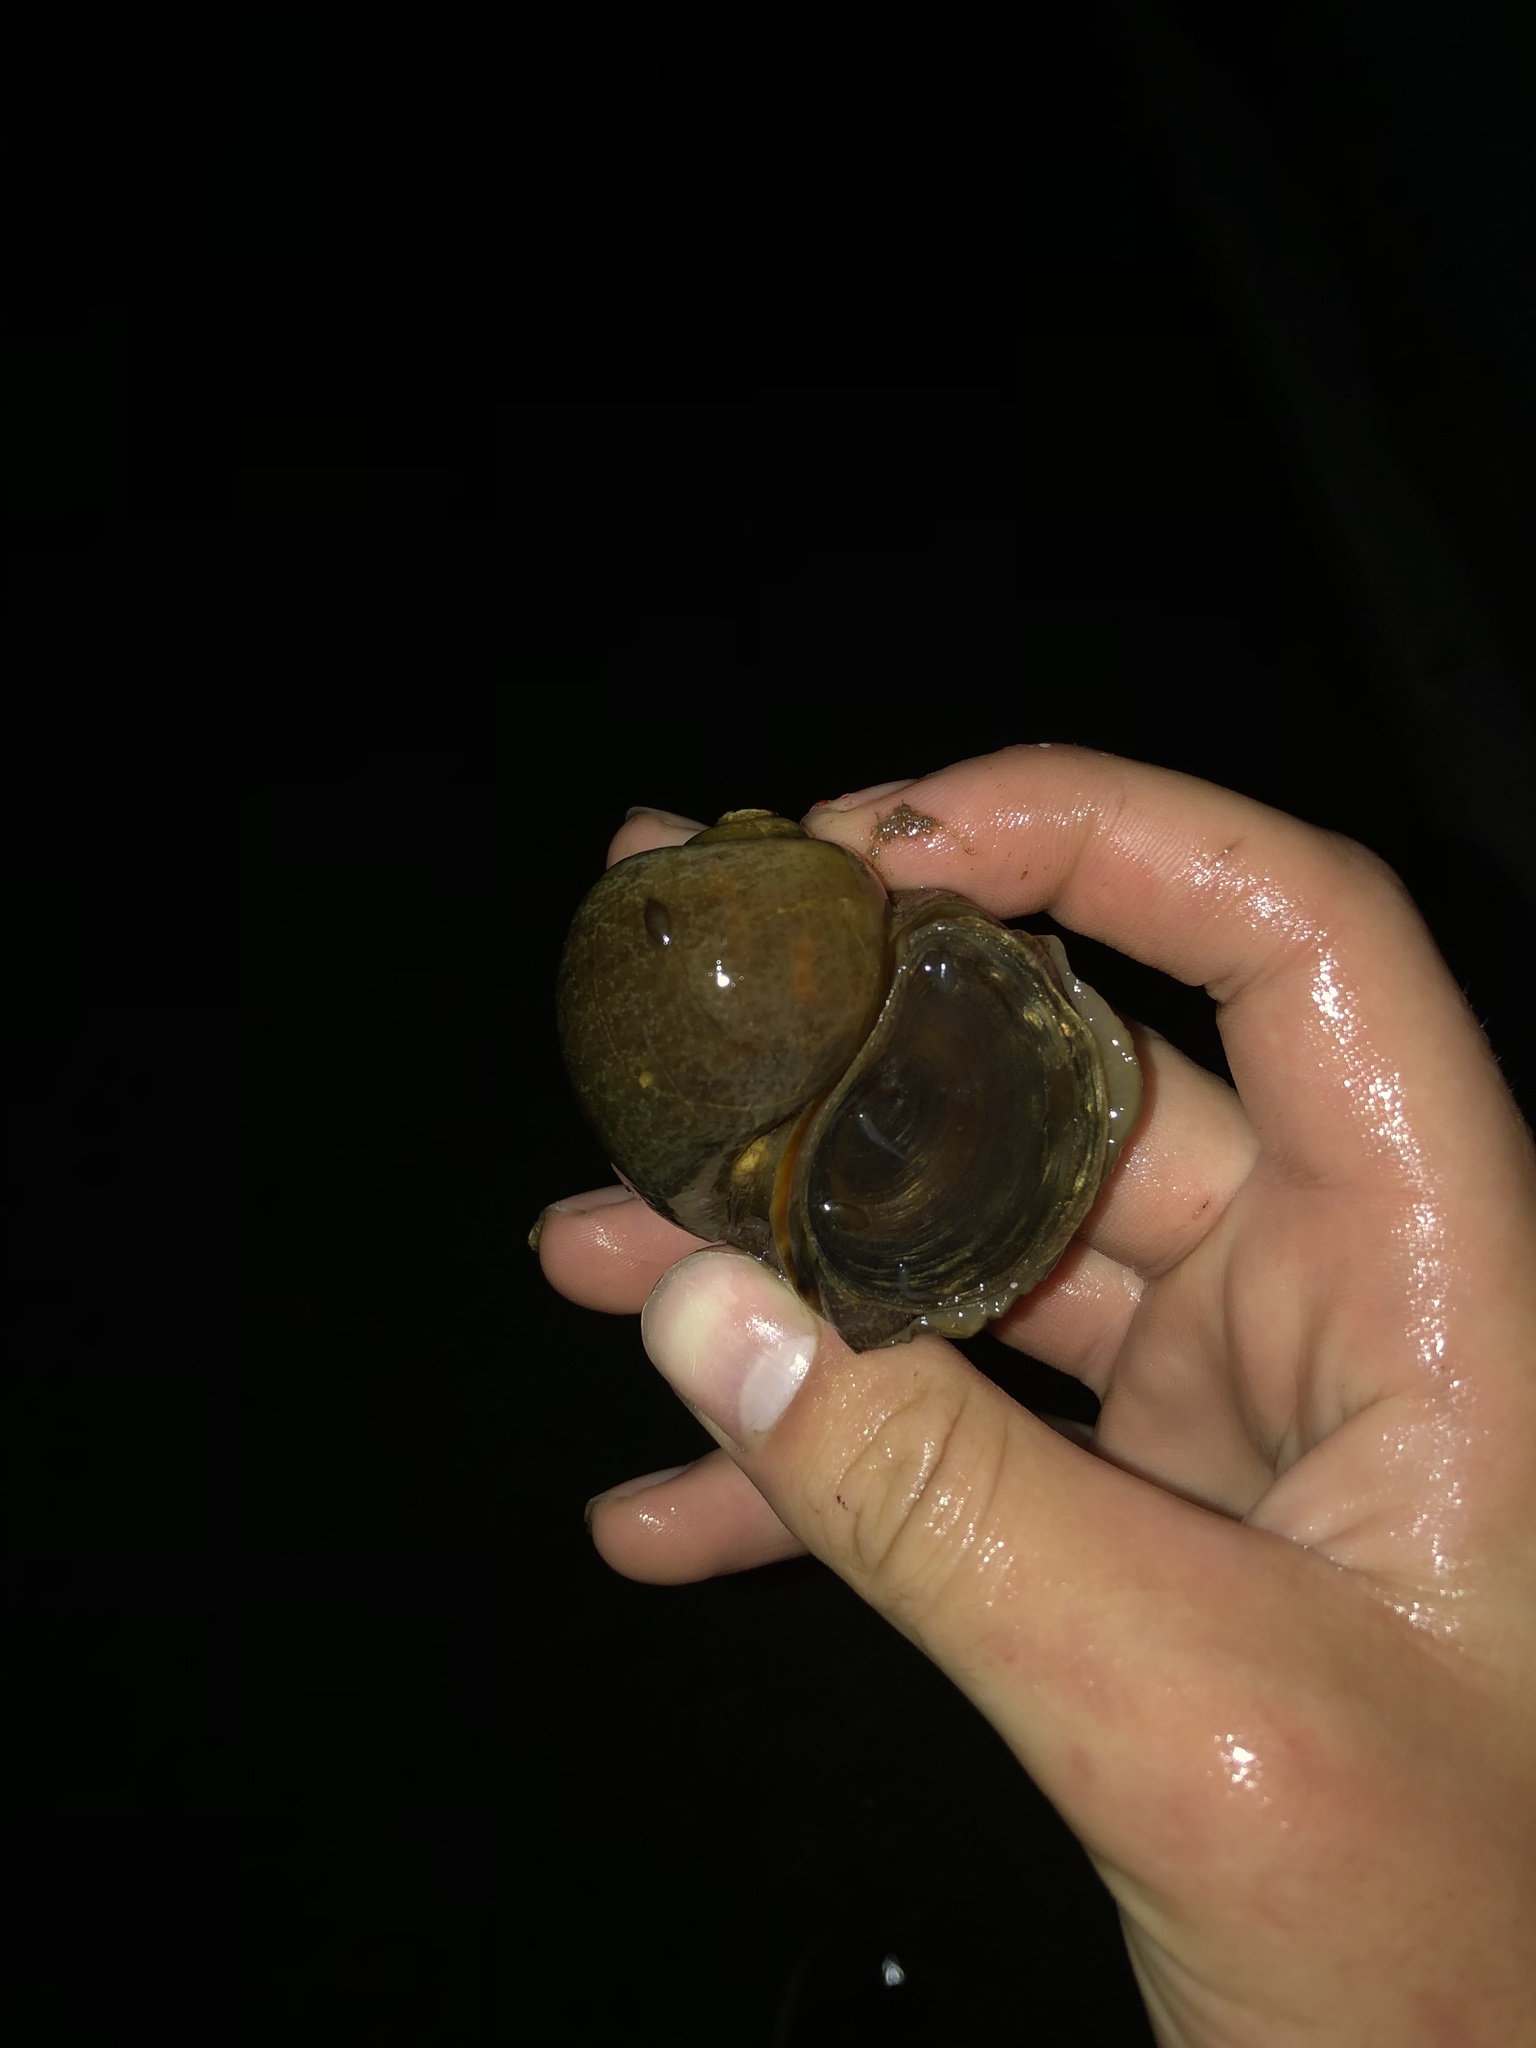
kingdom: Animalia
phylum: Mollusca
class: Gastropoda
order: Architaenioglossa
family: Ampullariidae
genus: Pomacea
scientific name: Pomacea canaliculata
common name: Channeled applesnail
